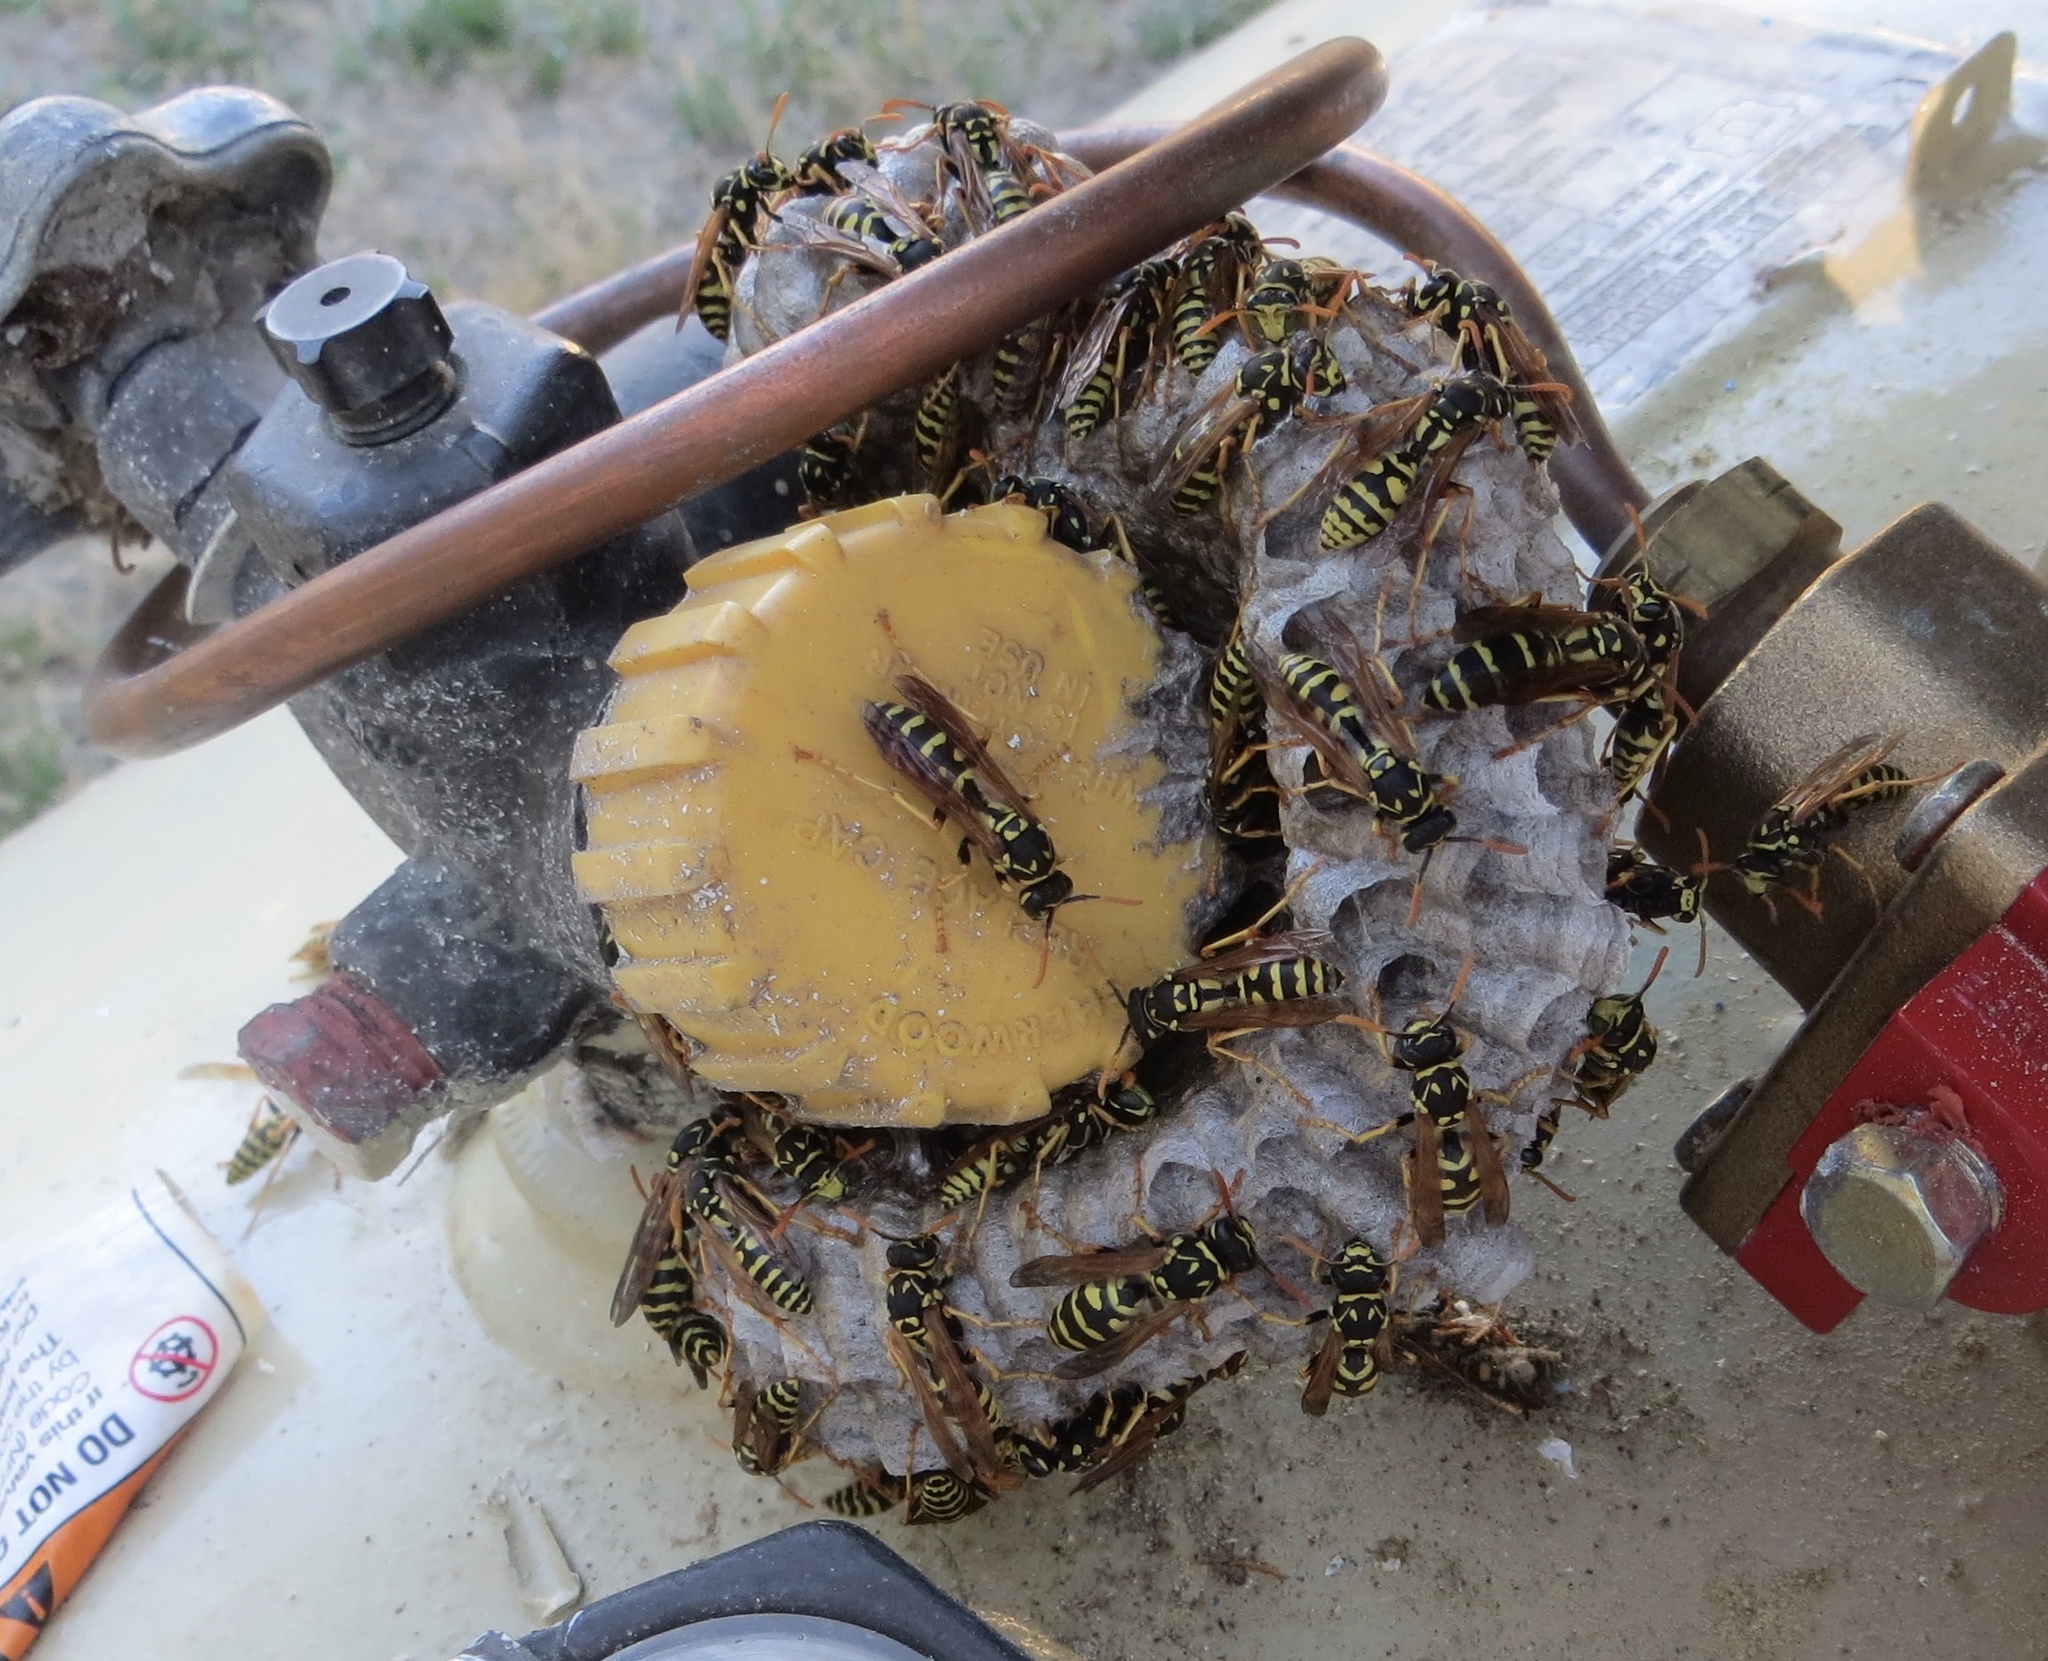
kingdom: Animalia
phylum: Arthropoda
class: Insecta
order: Hymenoptera
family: Eumenidae
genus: Polistes
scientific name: Polistes dominula
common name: Paper wasp
